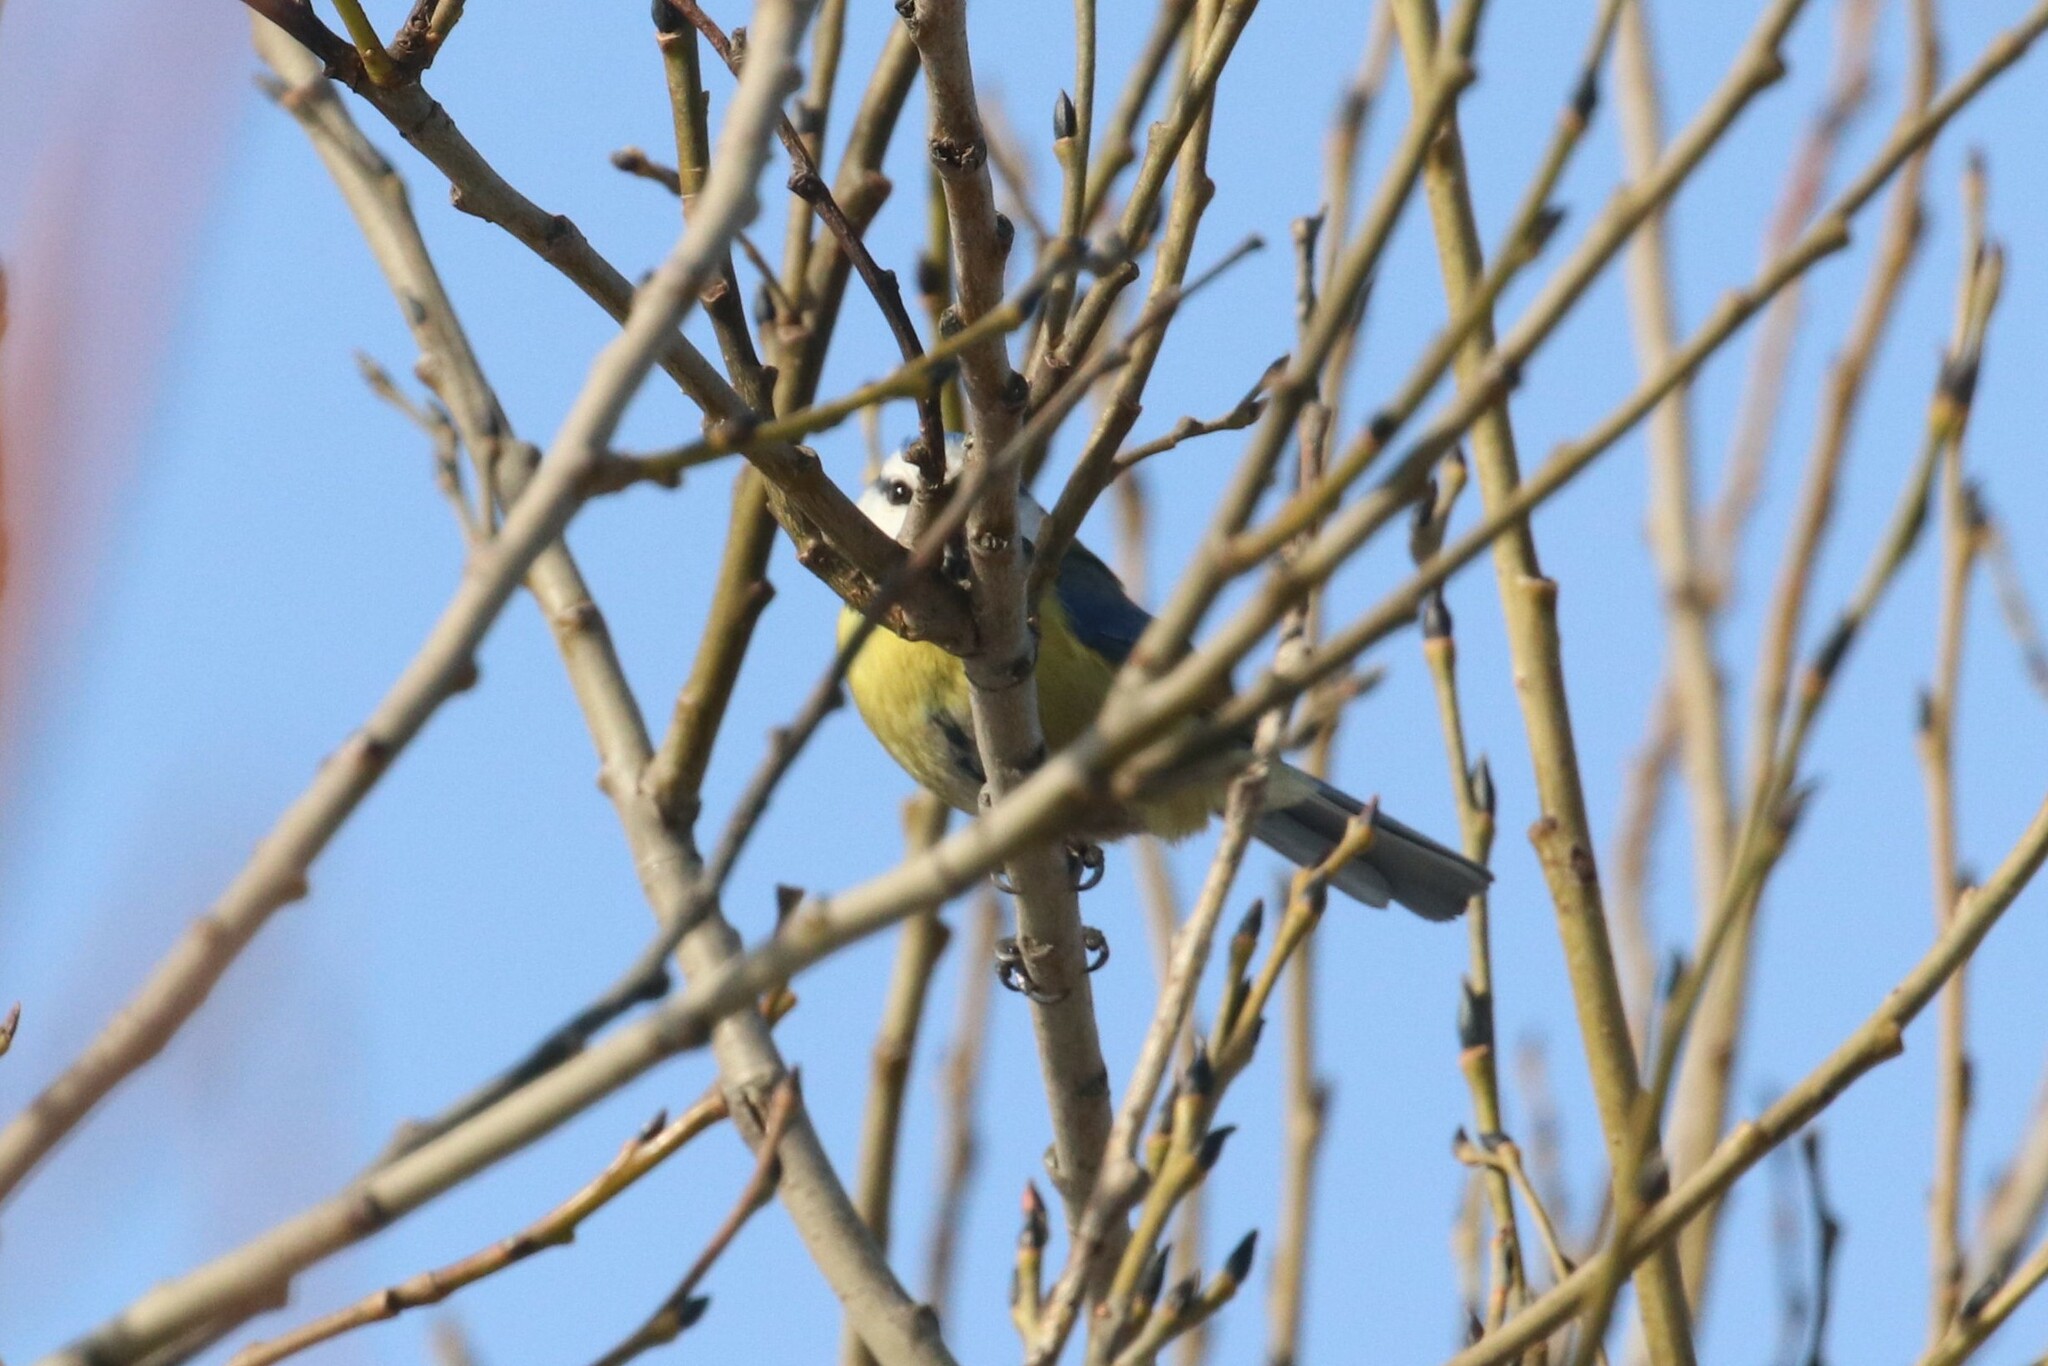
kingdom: Animalia
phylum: Chordata
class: Aves
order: Passeriformes
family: Paridae
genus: Cyanistes
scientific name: Cyanistes caeruleus
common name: Eurasian blue tit
